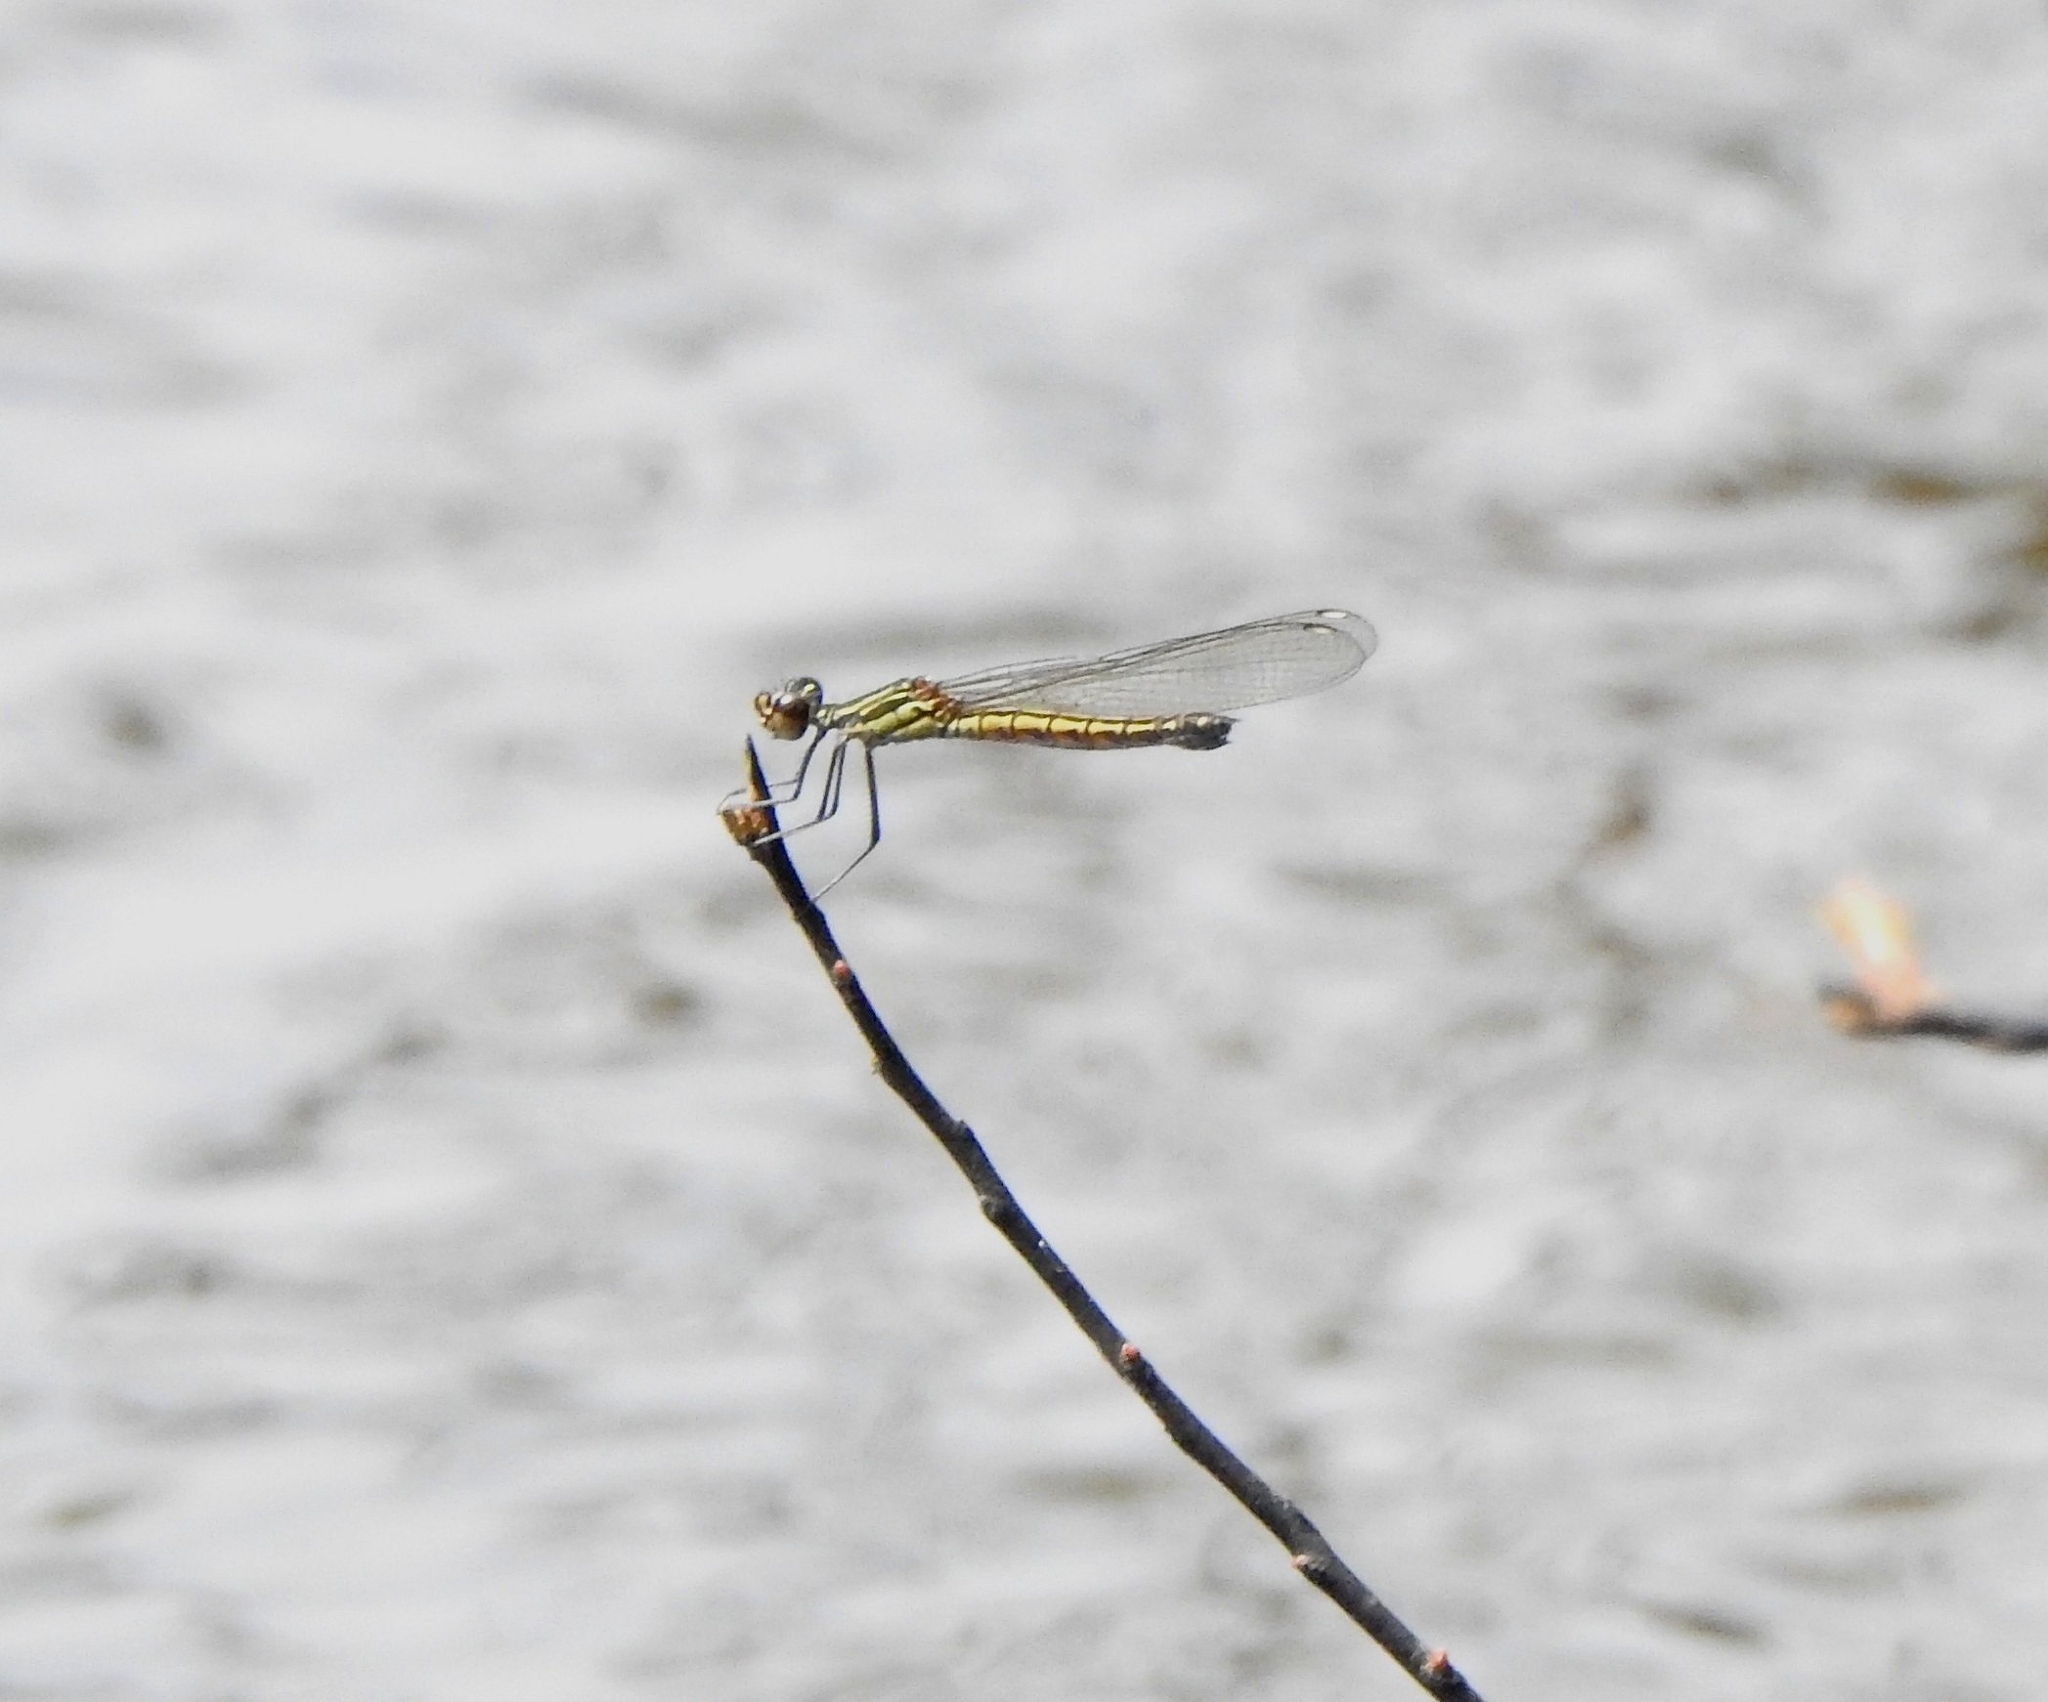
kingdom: Animalia
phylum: Arthropoda
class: Insecta
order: Odonata
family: Chlorocyphidae
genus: Libellago
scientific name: Libellago indica
